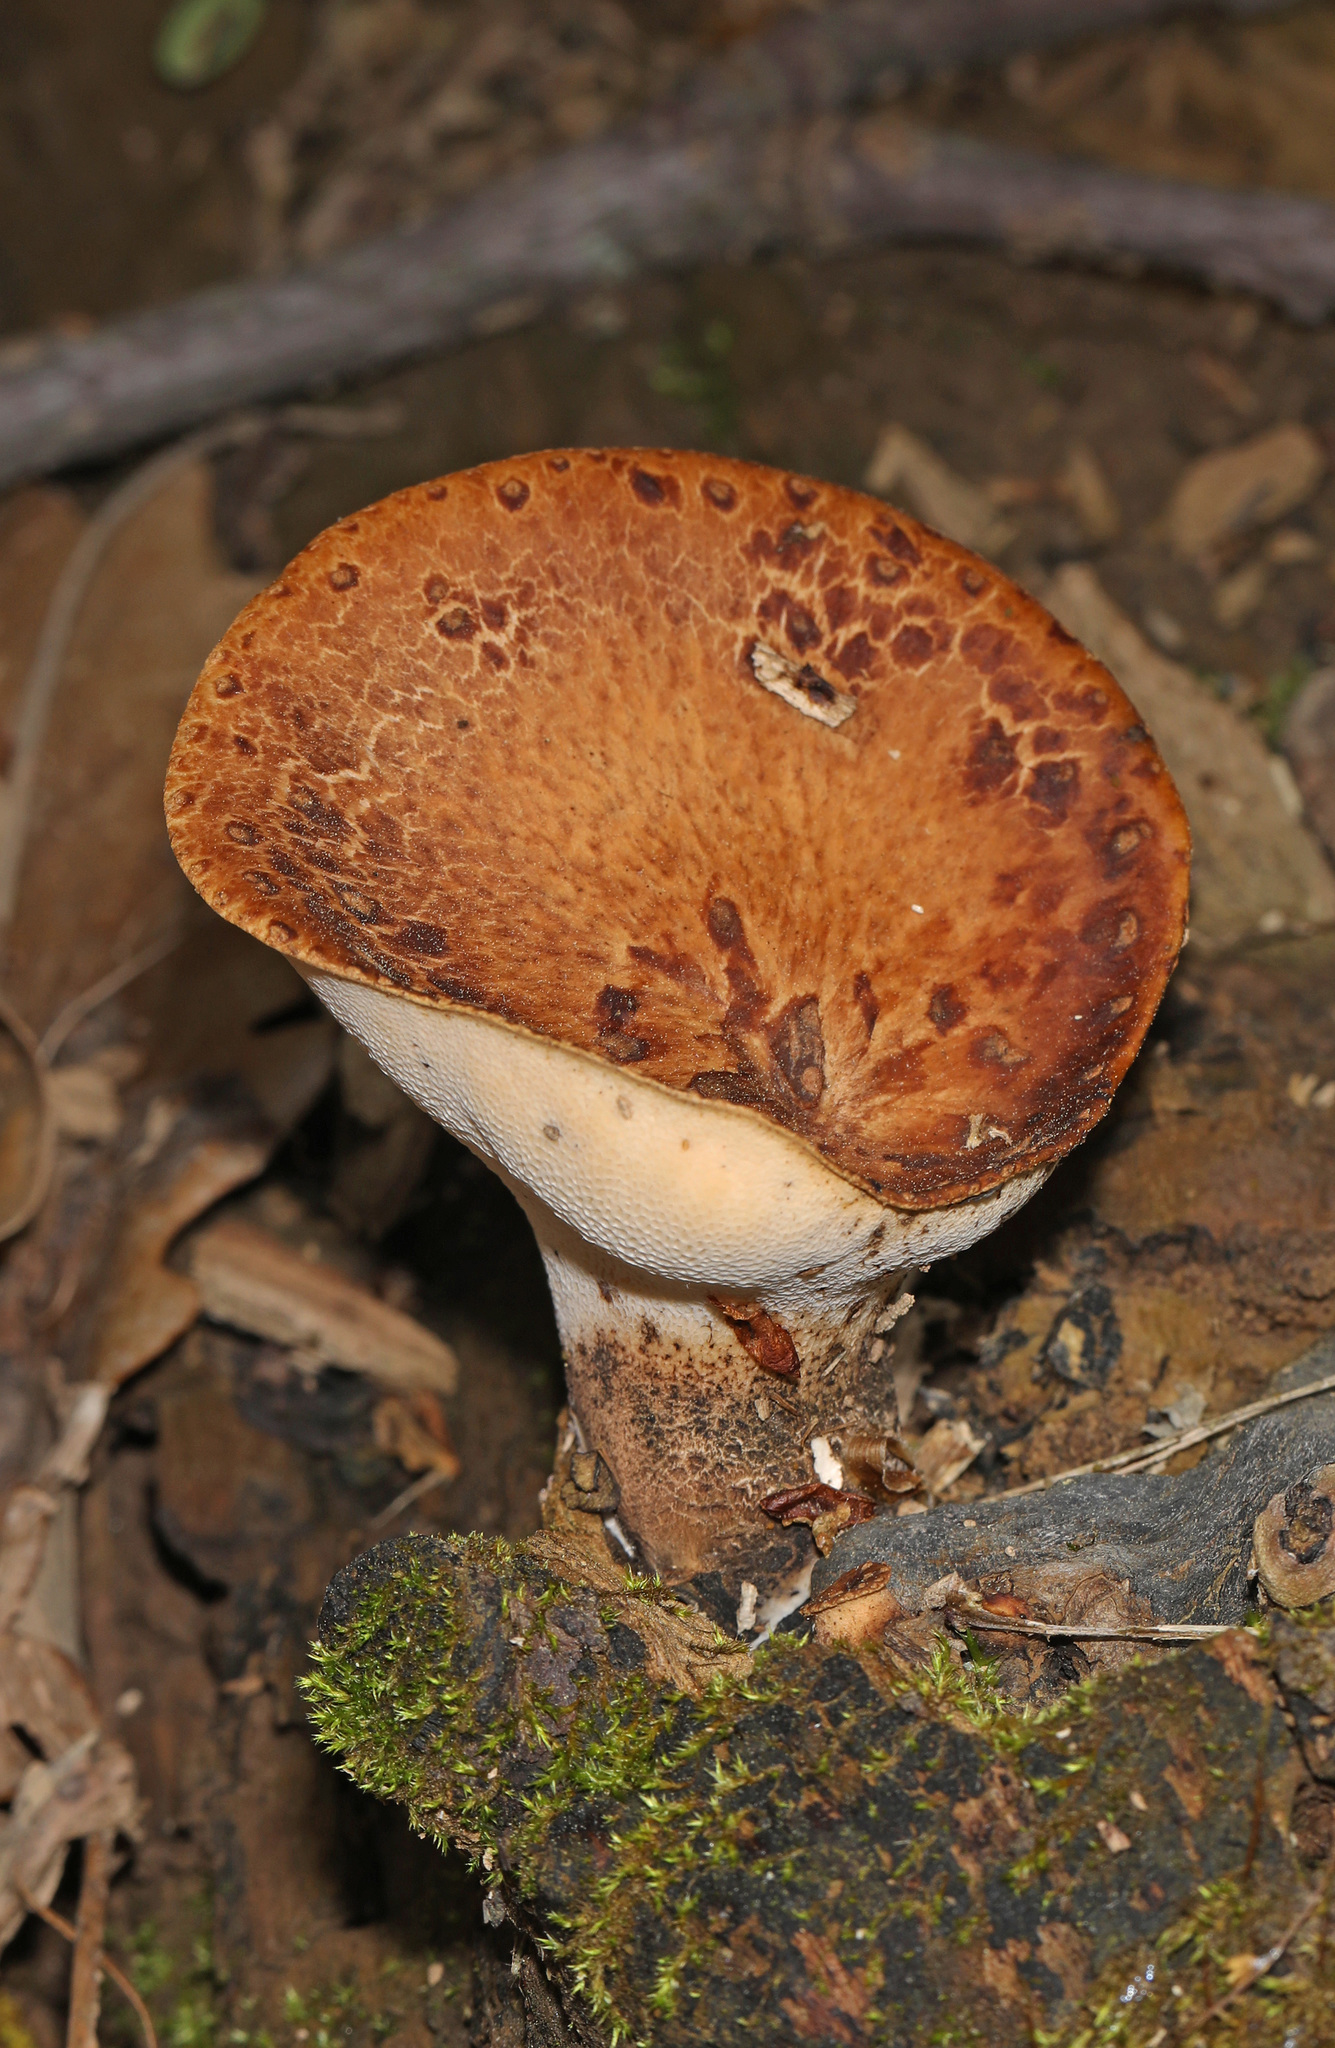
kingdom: Fungi
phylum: Basidiomycota
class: Agaricomycetes
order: Polyporales
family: Polyporaceae
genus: Cerioporus
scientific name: Cerioporus squamosus
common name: Dryad's saddle
